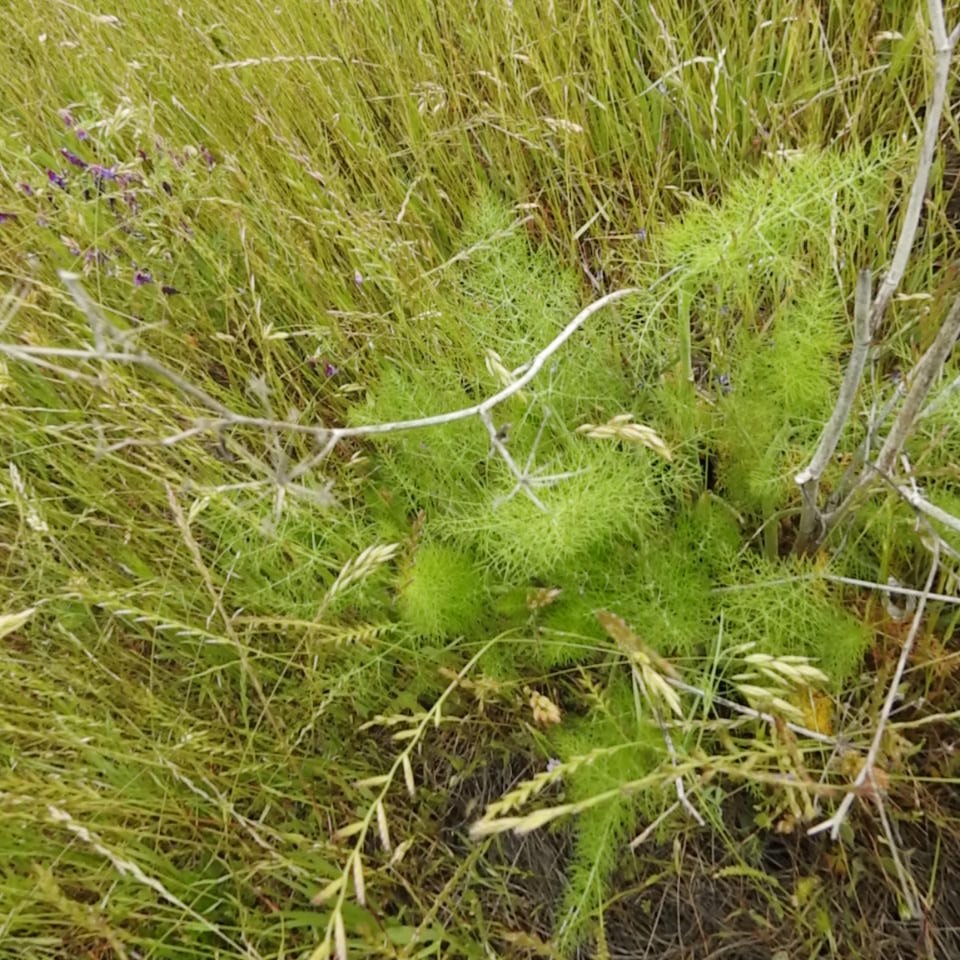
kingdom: Plantae
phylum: Tracheophyta
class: Magnoliopsida
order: Apiales
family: Apiaceae
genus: Foeniculum
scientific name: Foeniculum vulgare
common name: Fennel
